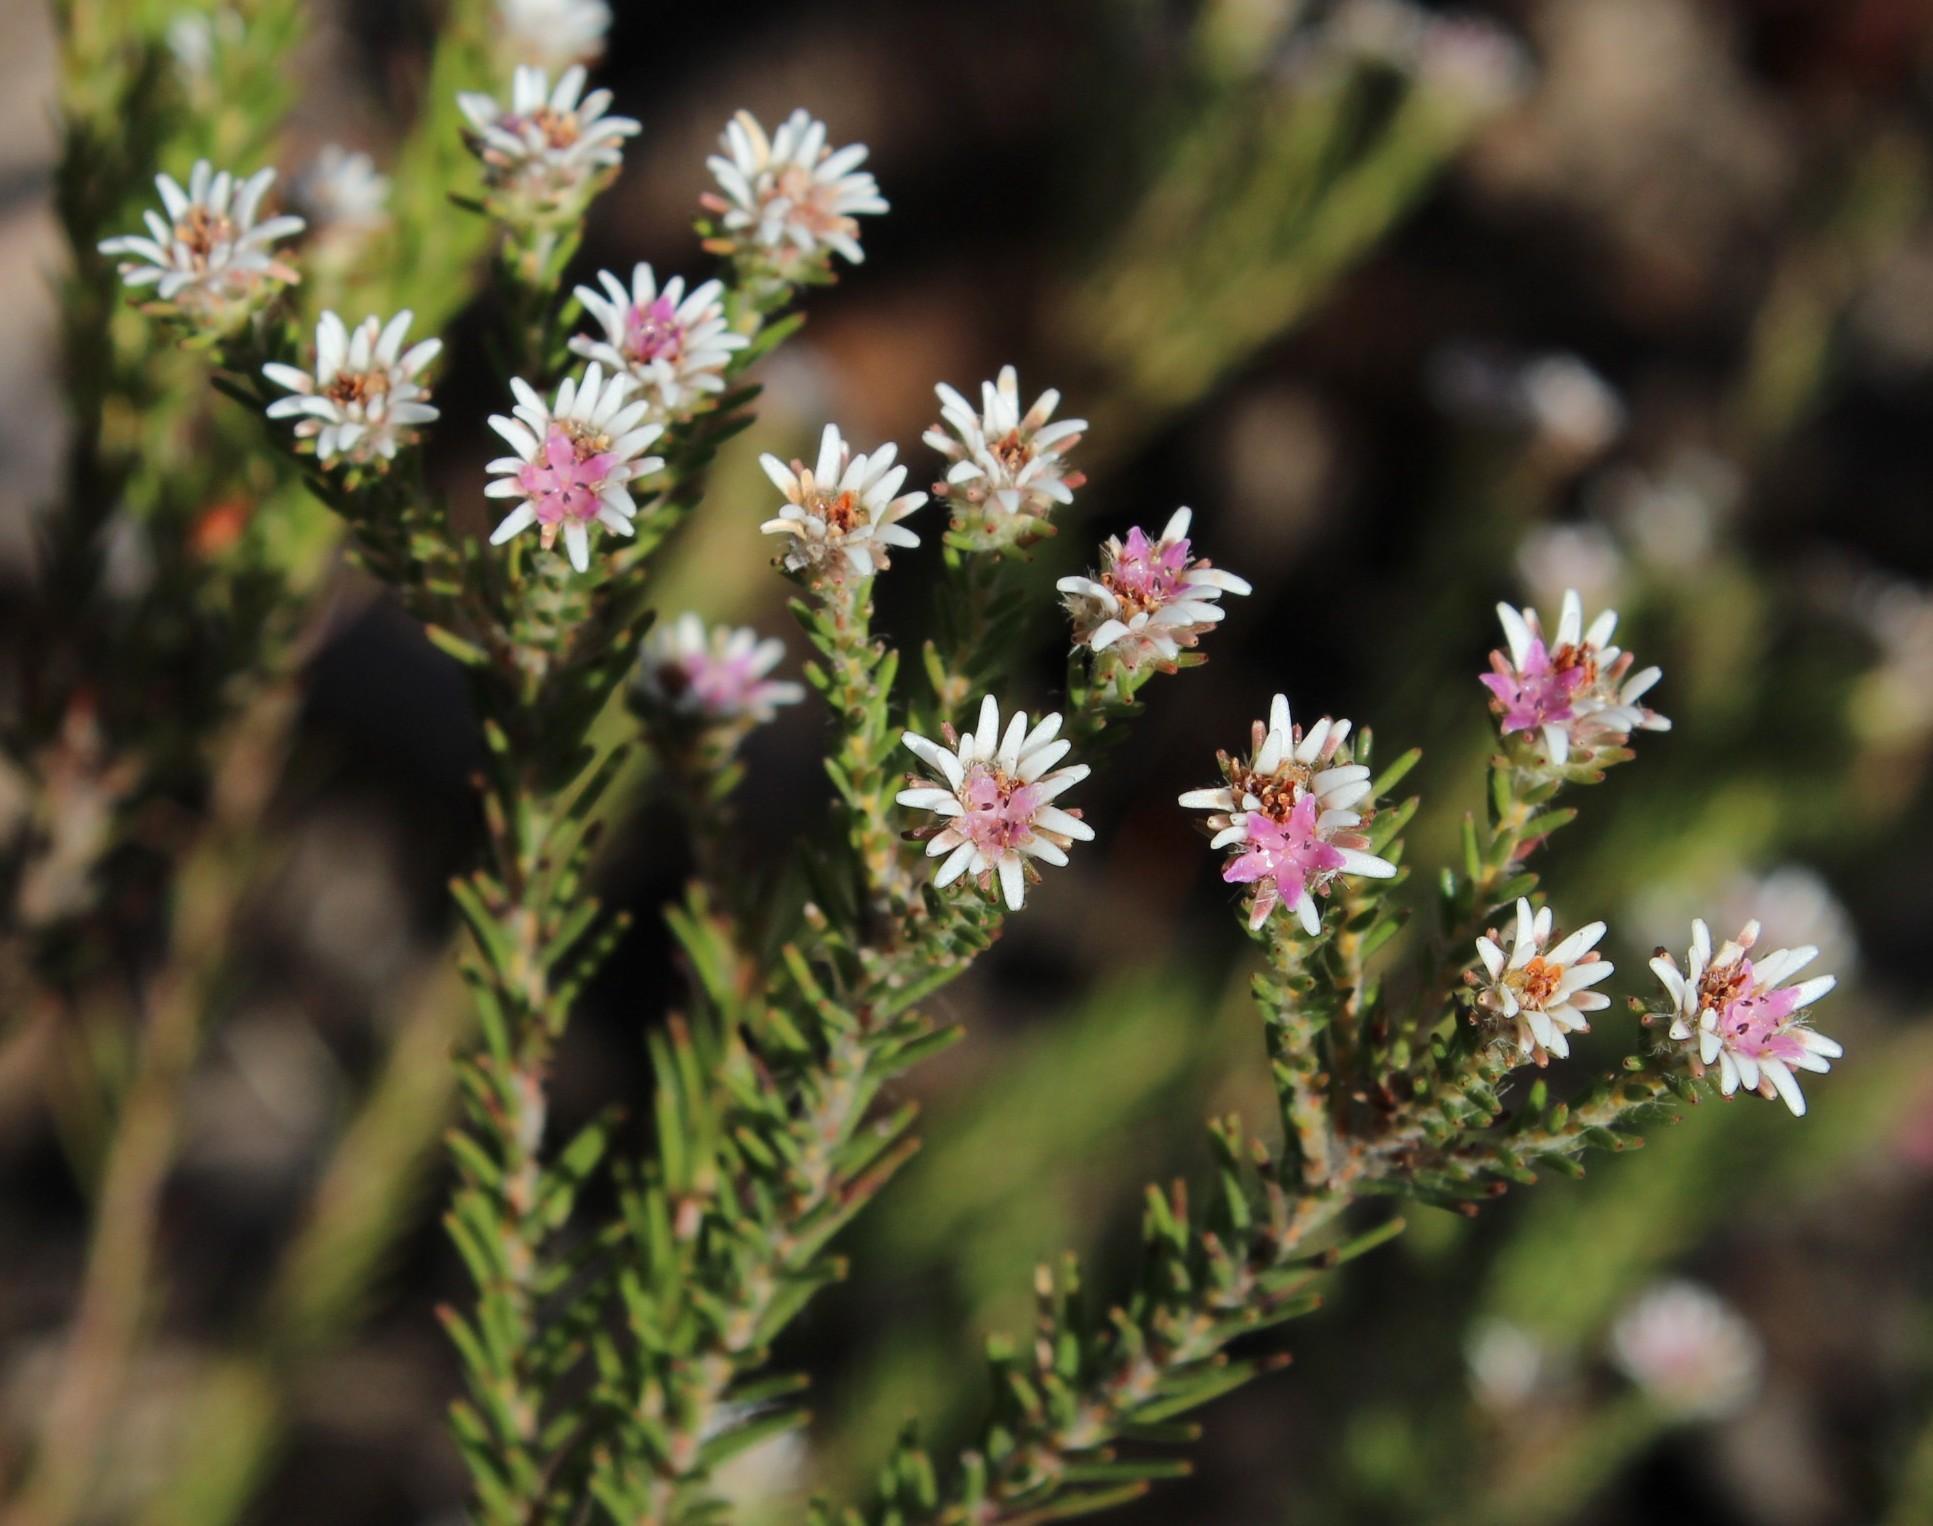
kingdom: Plantae
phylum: Tracheophyta
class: Magnoliopsida
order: Bruniales
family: Bruniaceae
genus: Staavia
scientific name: Staavia radiata
